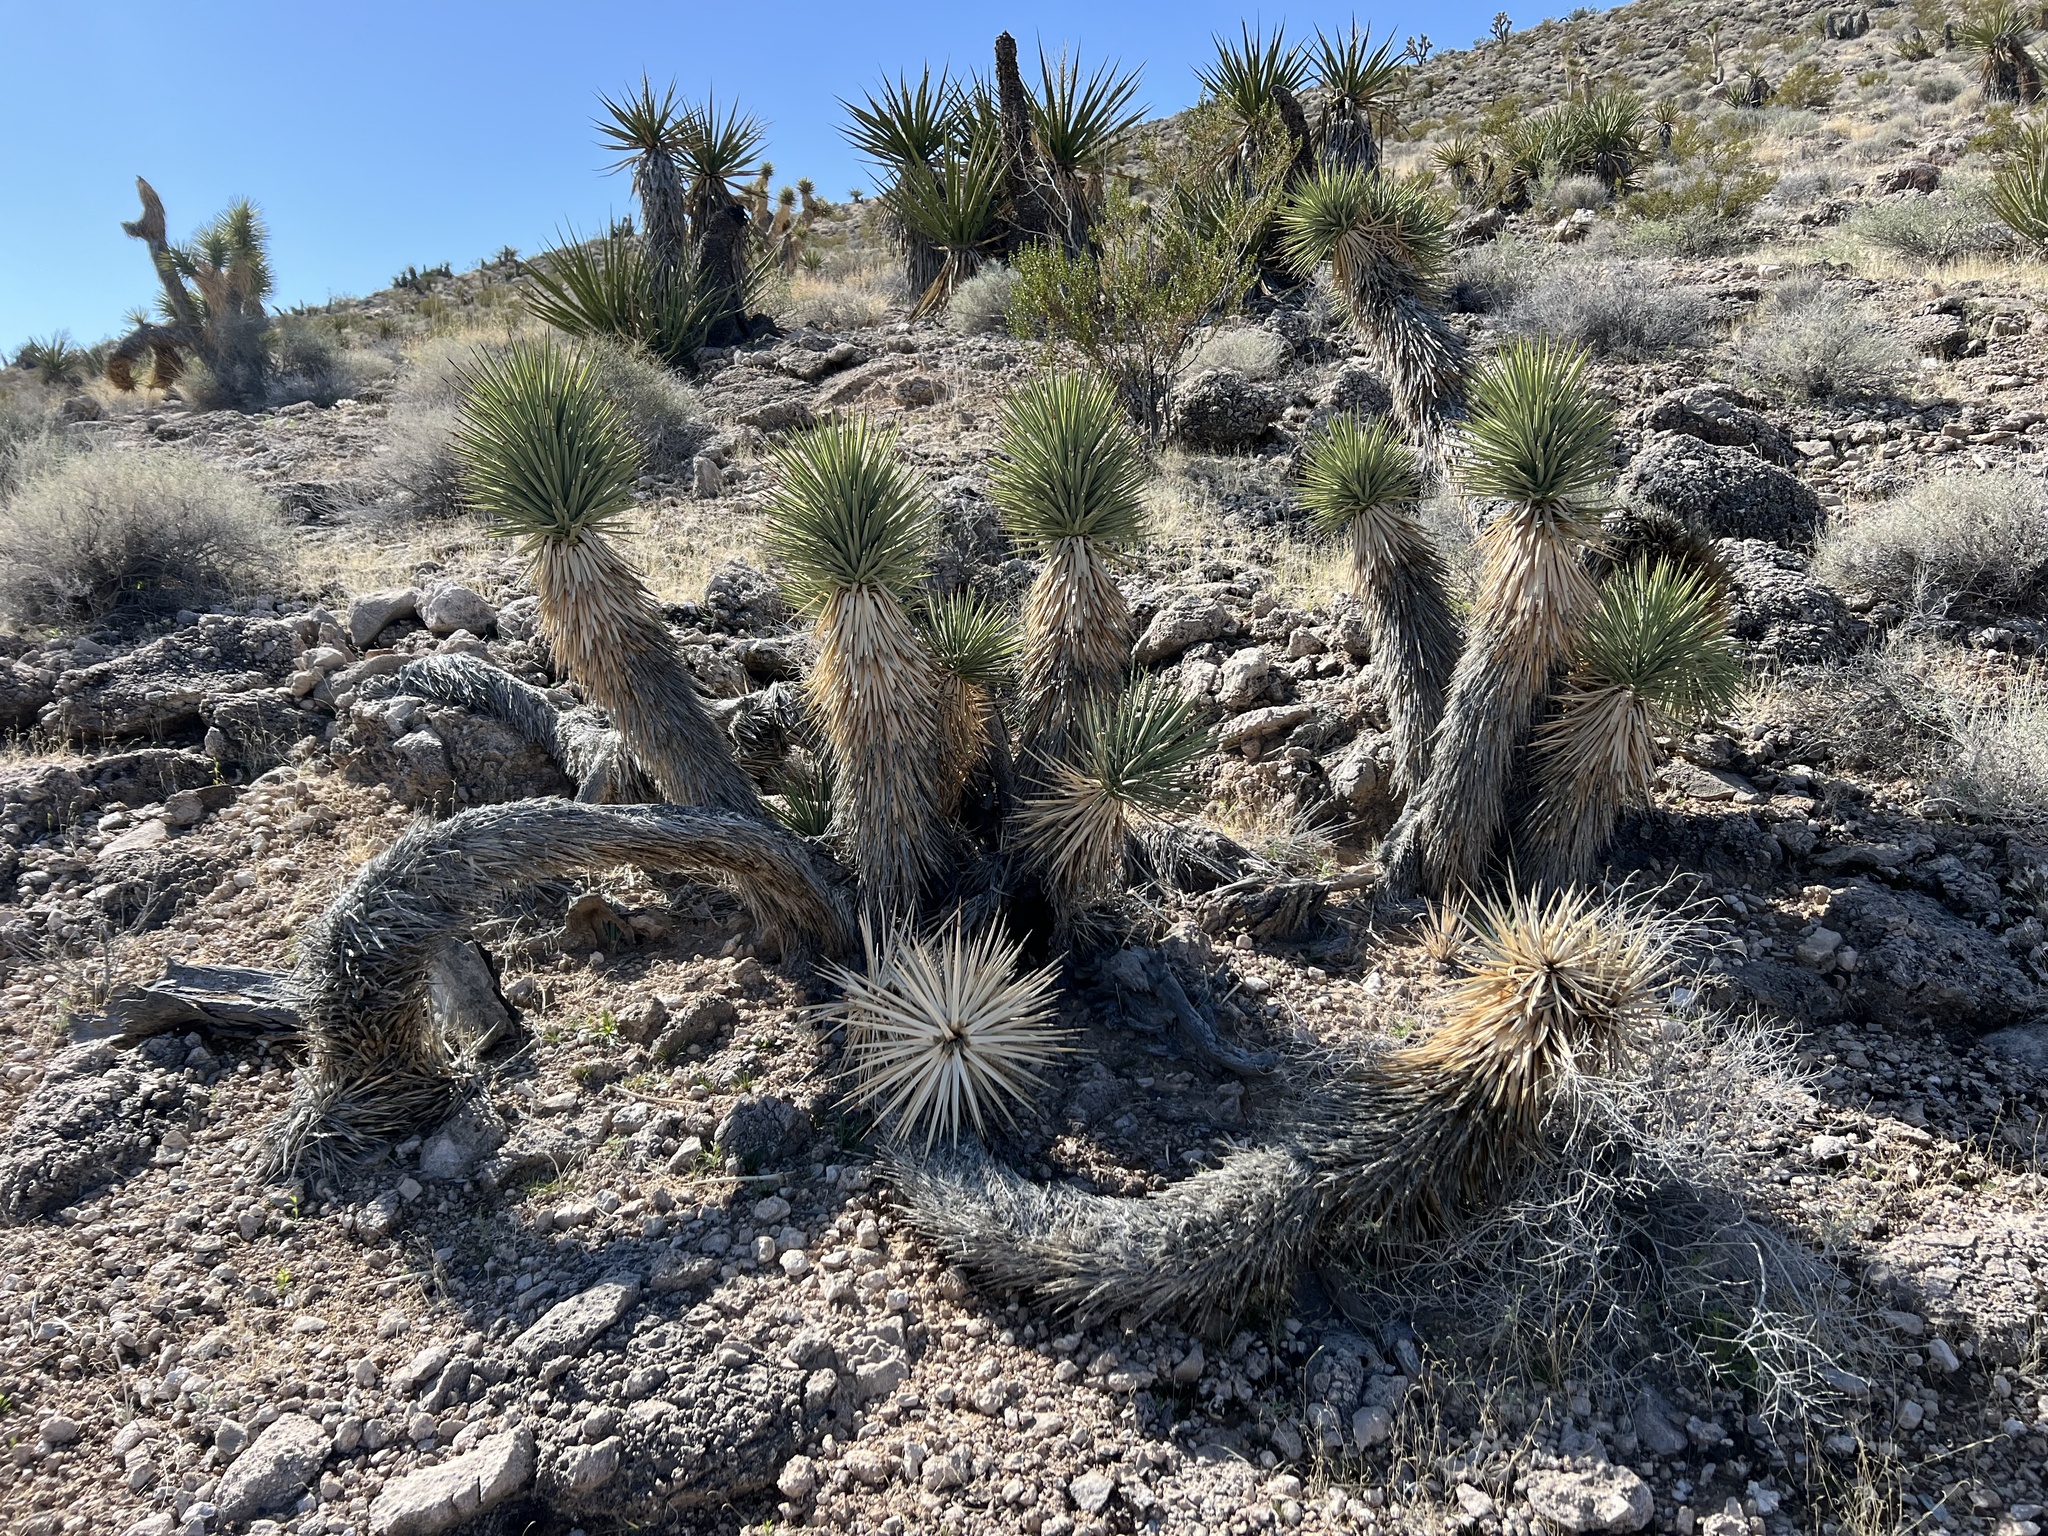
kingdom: Plantae
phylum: Tracheophyta
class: Liliopsida
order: Asparagales
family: Asparagaceae
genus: Yucca
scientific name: Yucca brevifolia
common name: Joshua tree
